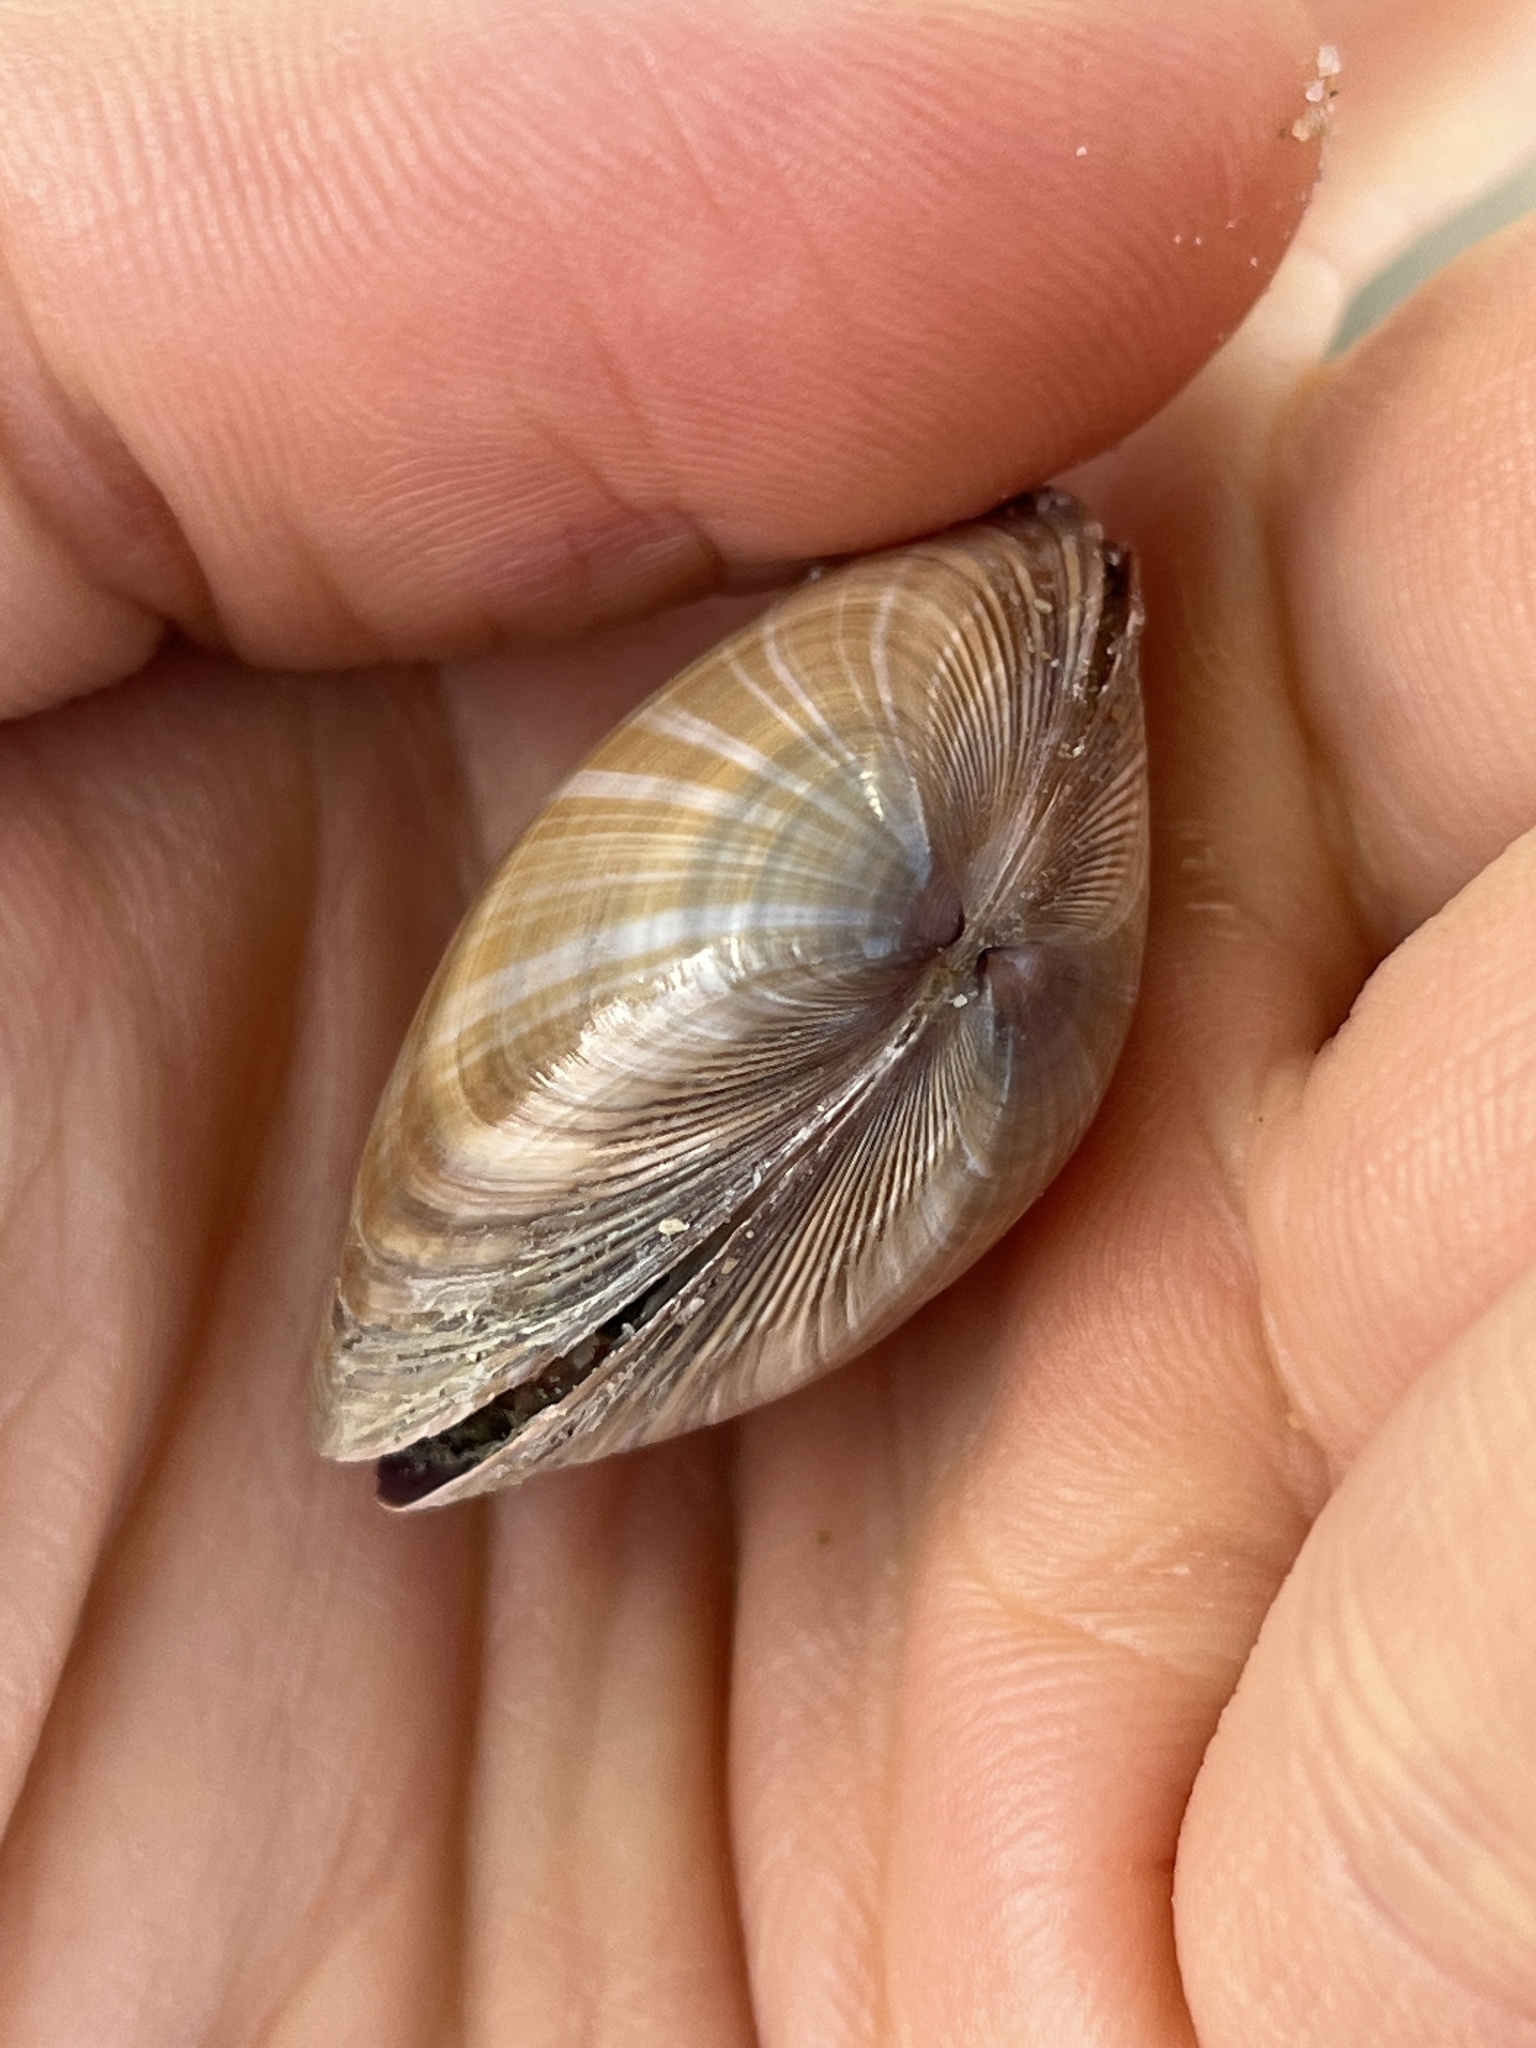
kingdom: Animalia
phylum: Mollusca
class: Bivalvia
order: Venerida
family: Mactridae
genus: Mactra
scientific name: Mactra chinensis
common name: Chinese surf clam
